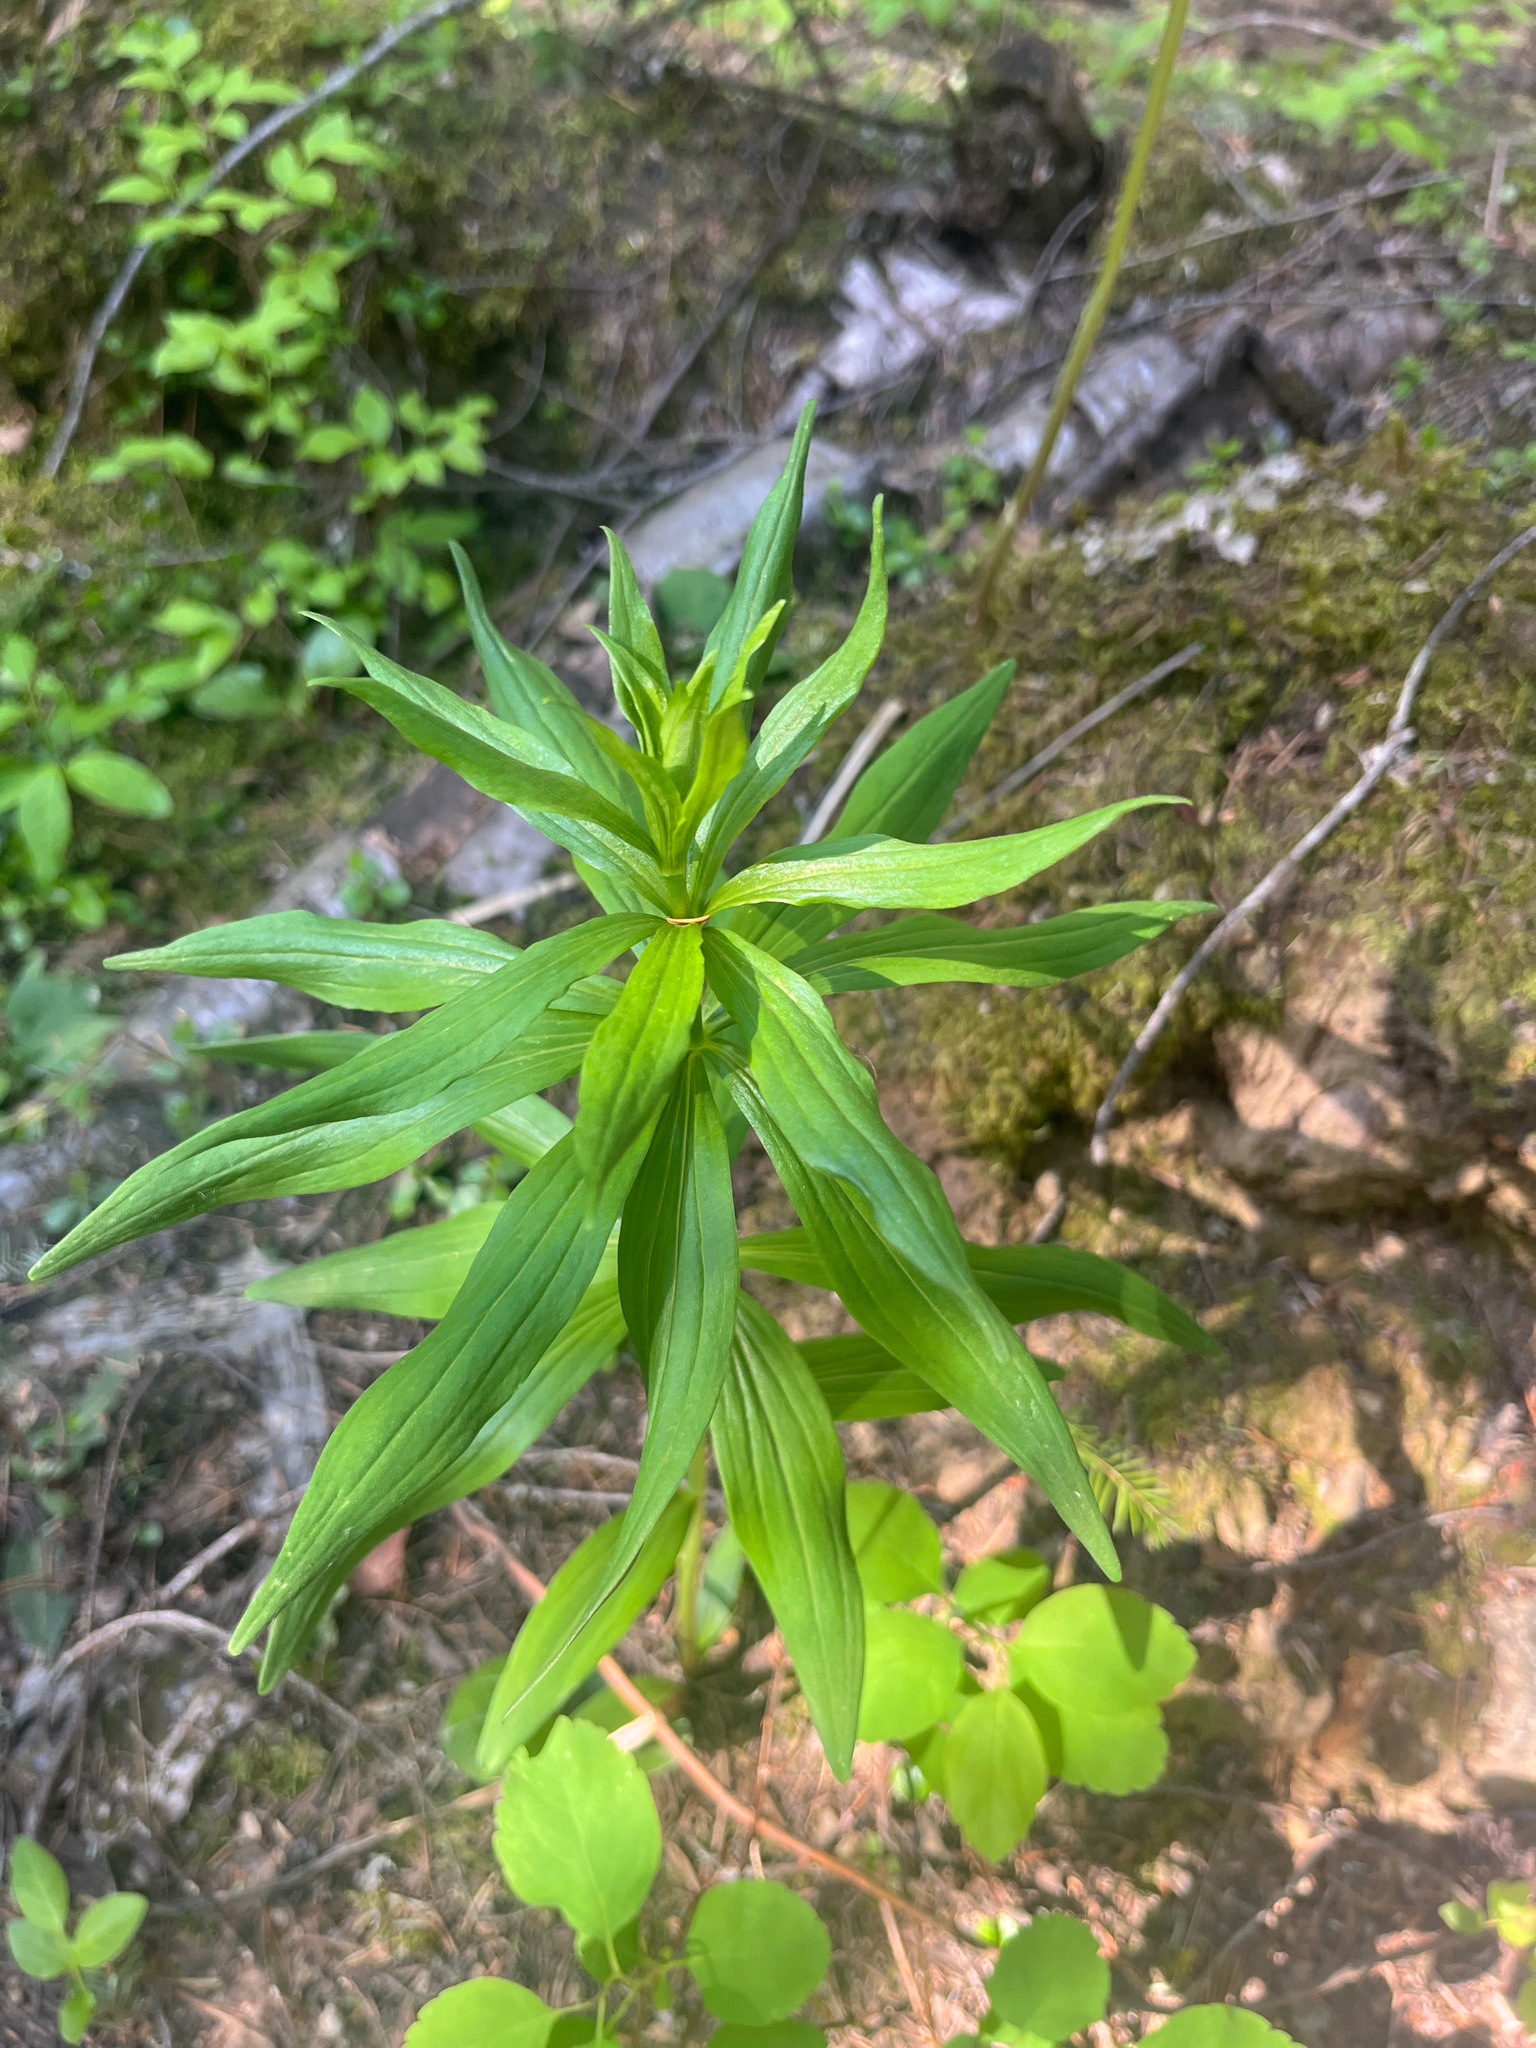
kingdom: Plantae
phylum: Tracheophyta
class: Liliopsida
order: Liliales
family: Liliaceae
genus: Lilium
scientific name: Lilium columbianum
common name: Columbia lily
